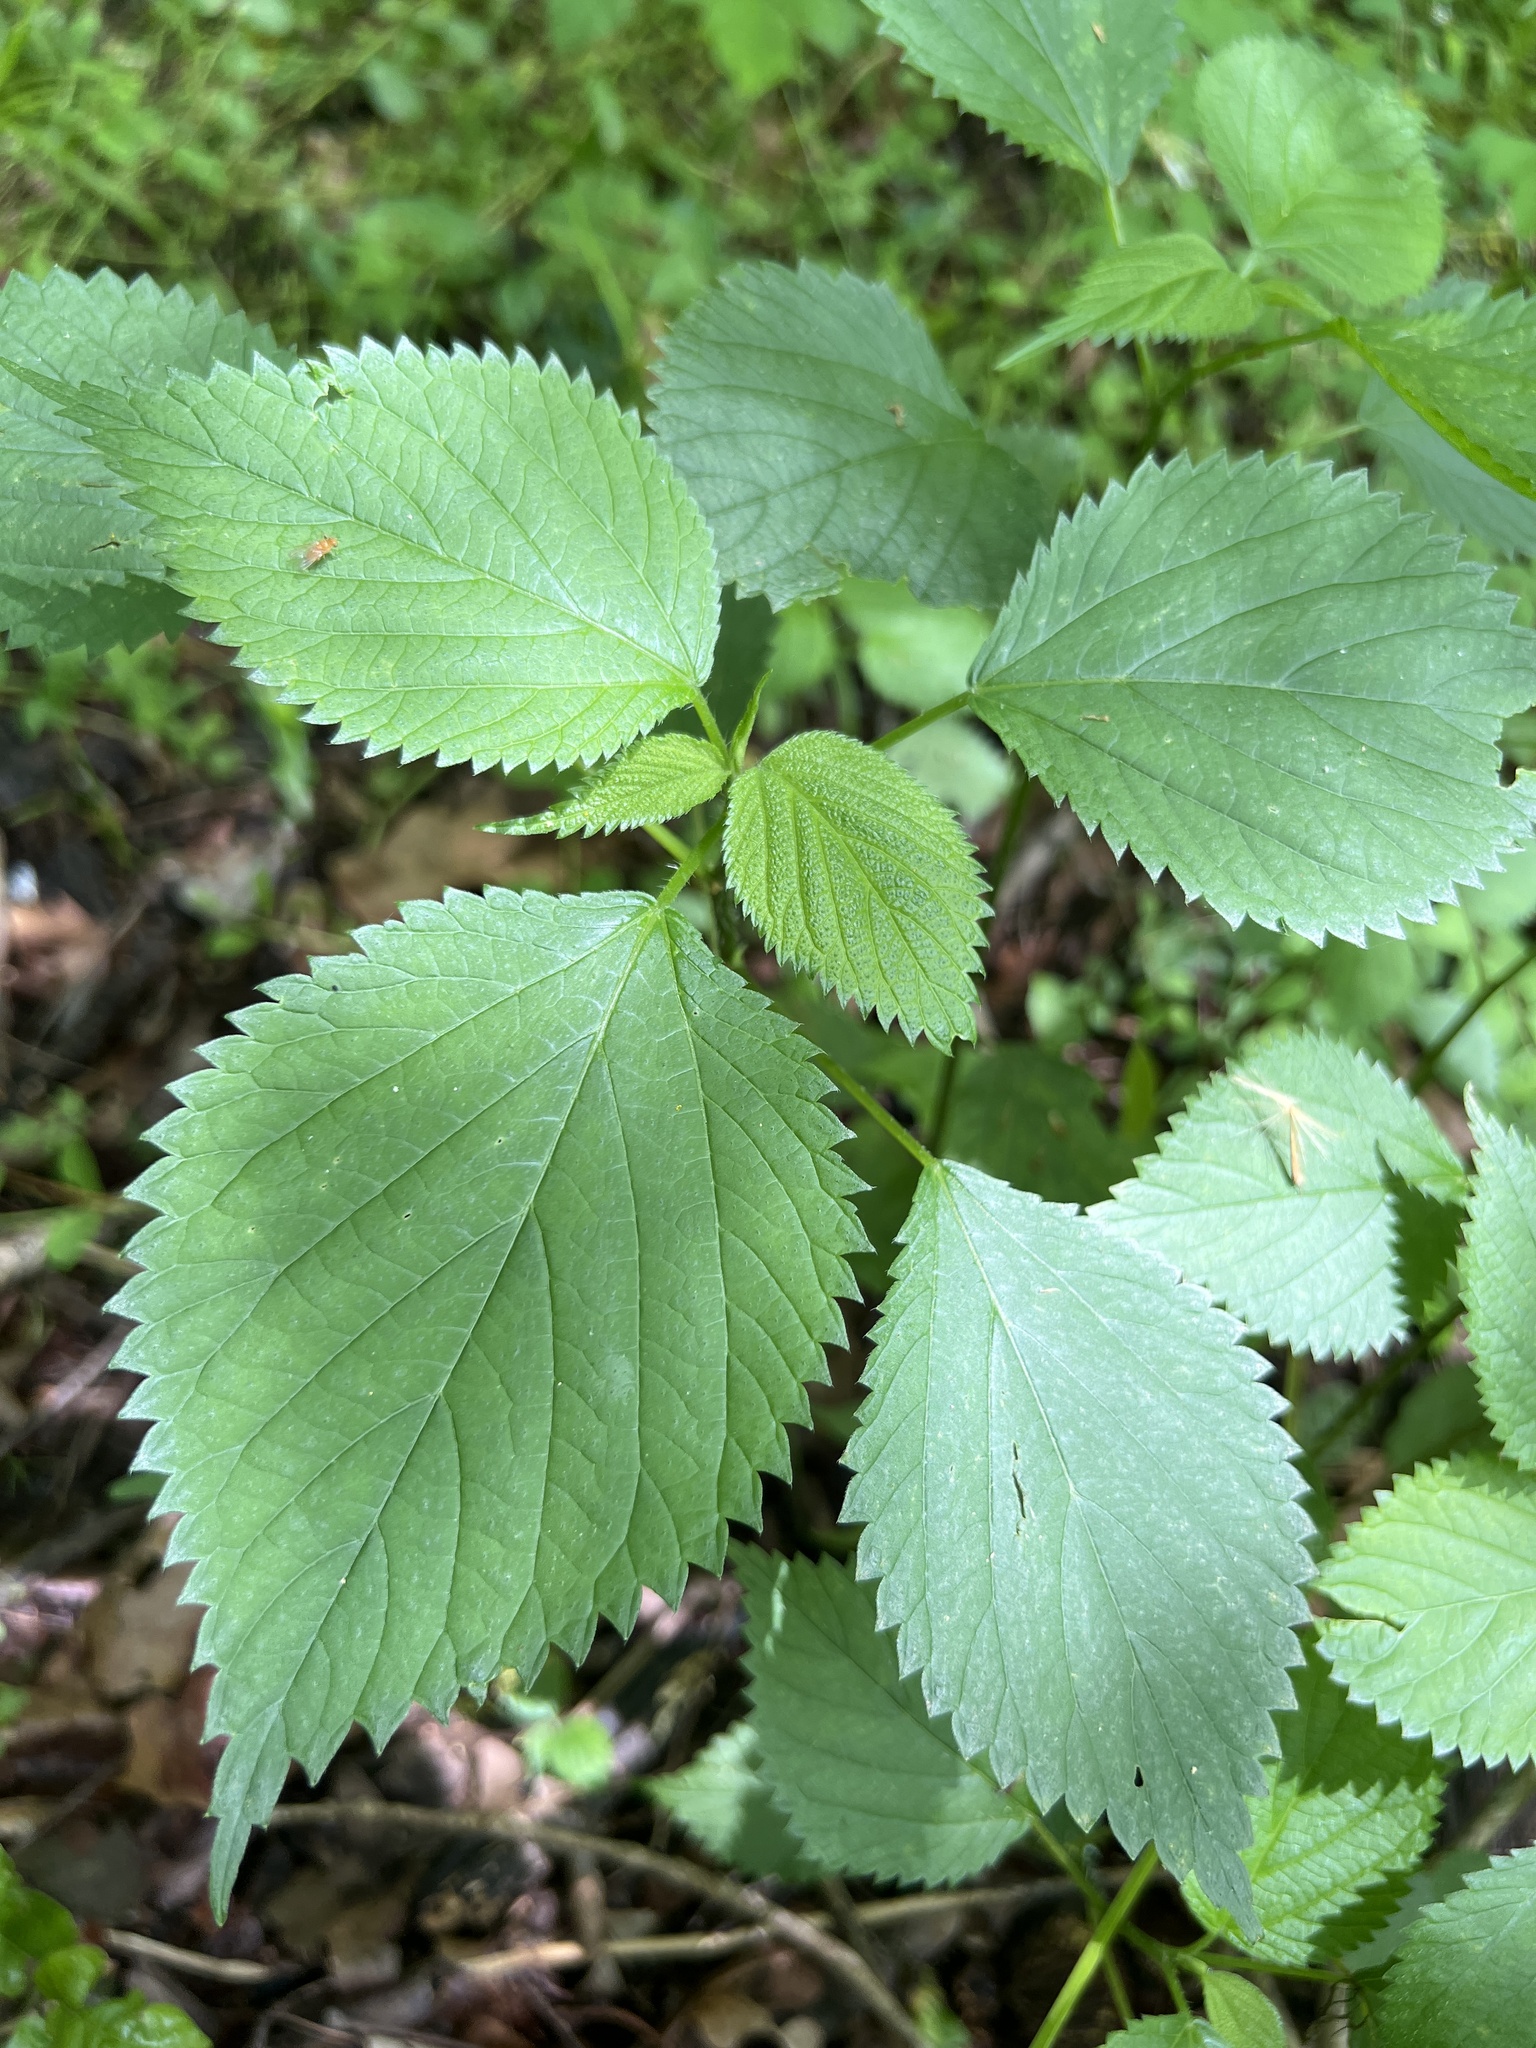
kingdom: Plantae
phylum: Tracheophyta
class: Magnoliopsida
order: Rosales
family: Urticaceae
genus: Laportea
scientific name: Laportea canadensis
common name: Canada nettle
